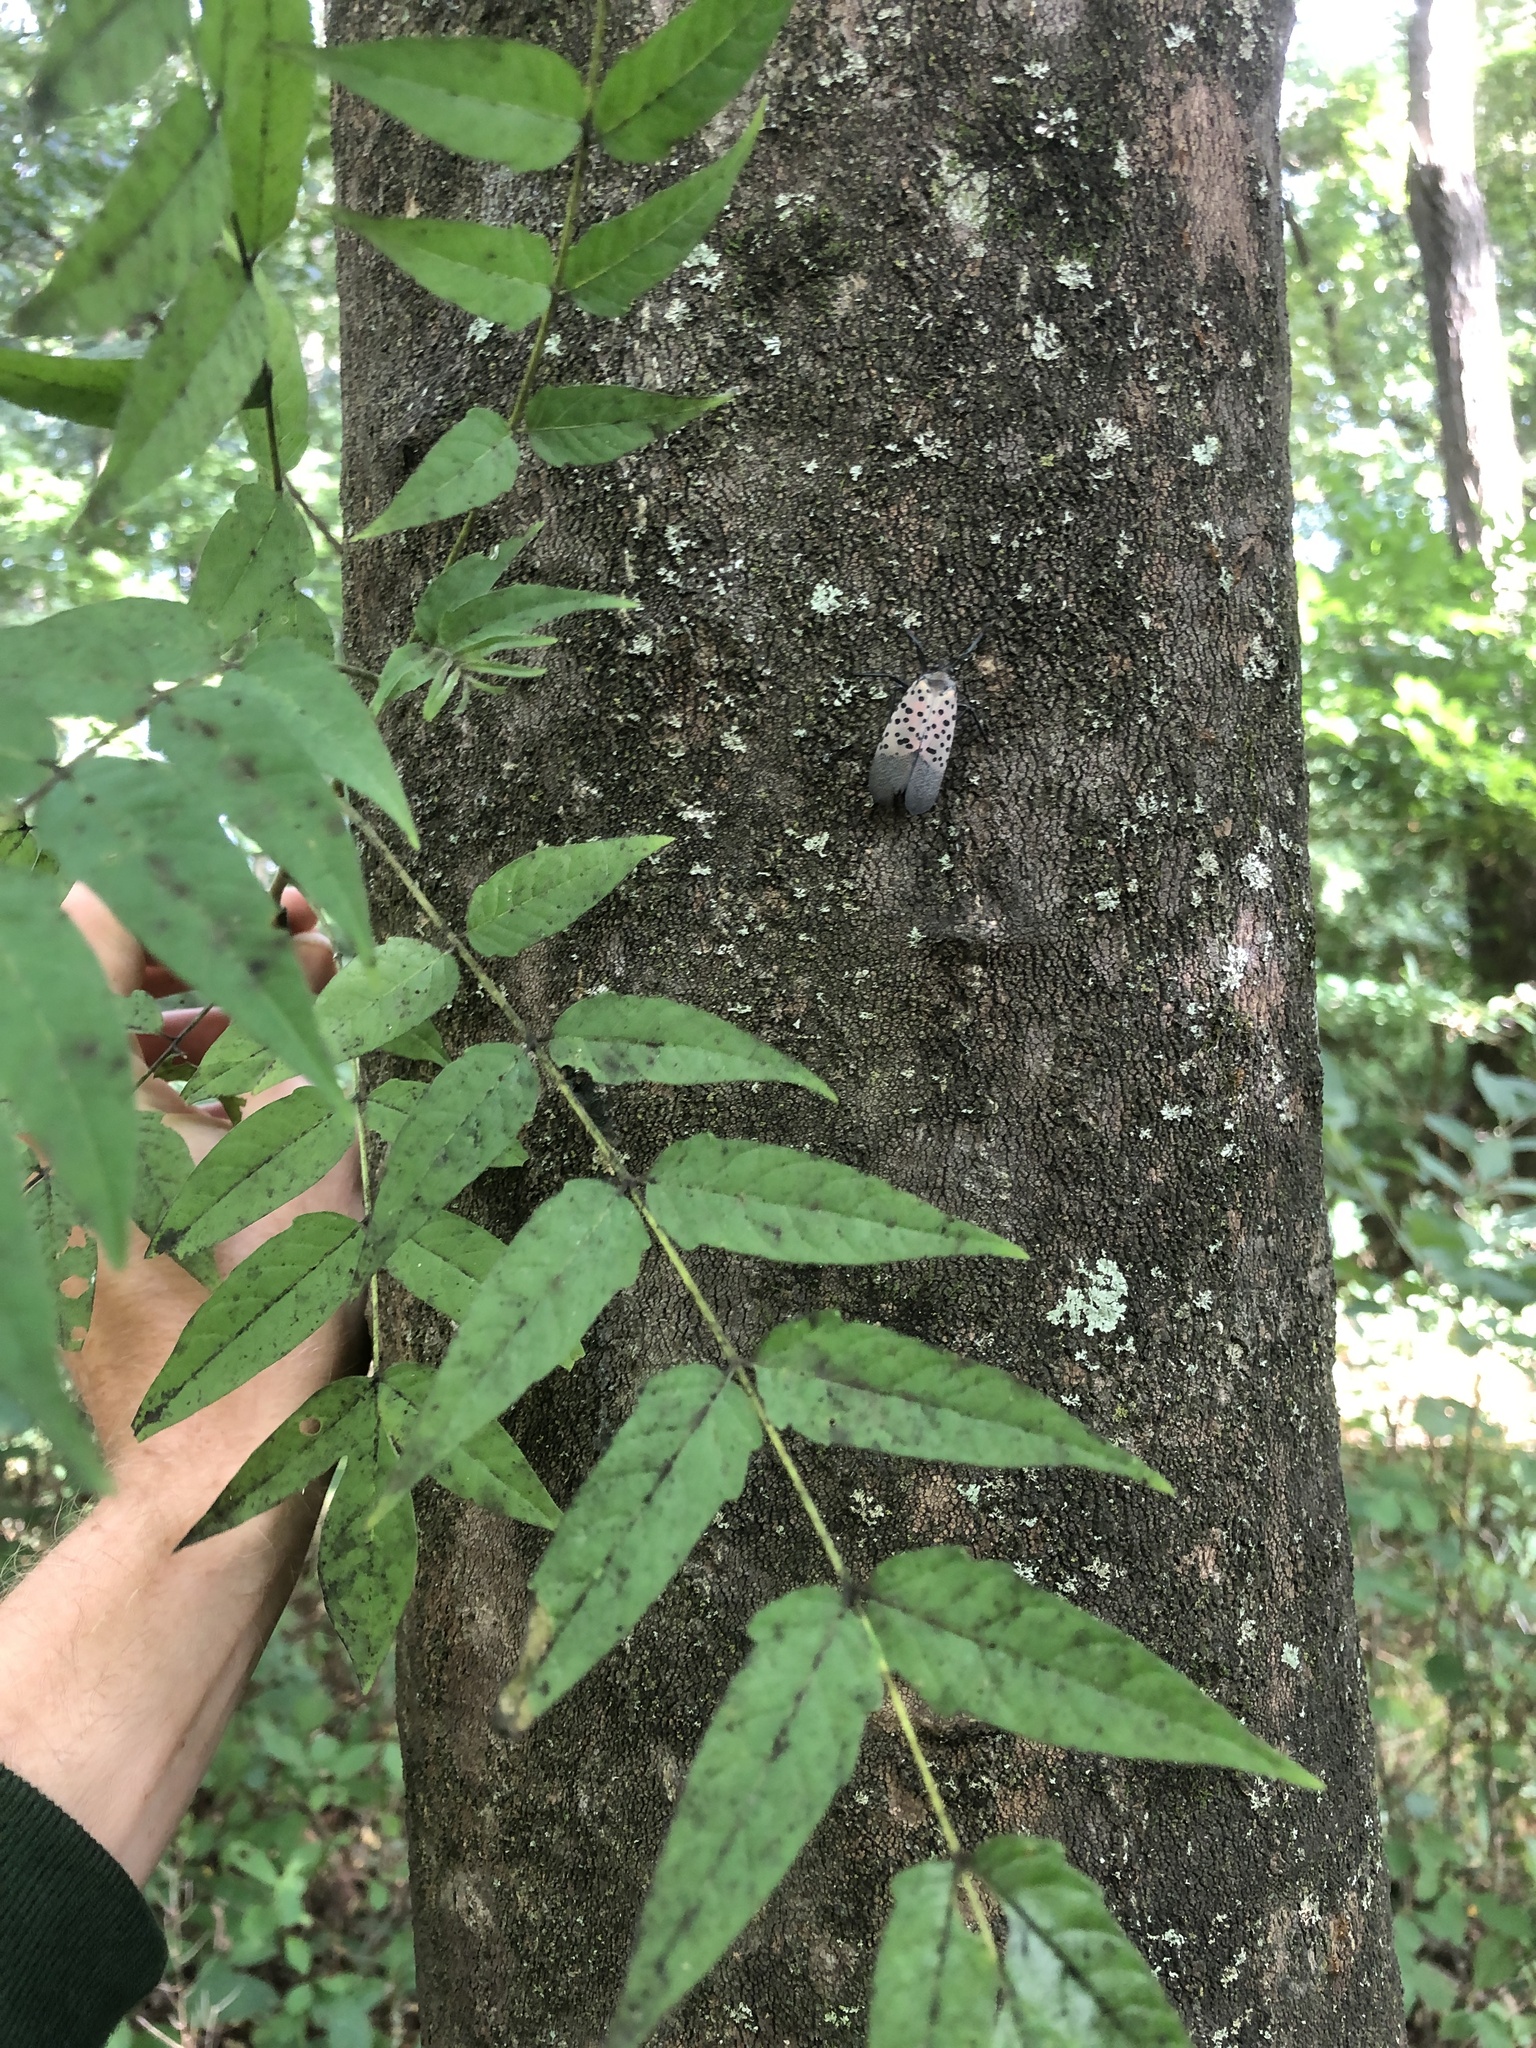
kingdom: Plantae
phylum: Tracheophyta
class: Magnoliopsida
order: Sapindales
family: Simaroubaceae
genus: Ailanthus
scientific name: Ailanthus altissima
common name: Tree-of-heaven
